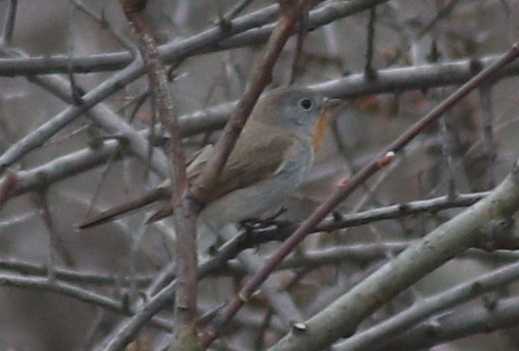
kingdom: Animalia
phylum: Chordata
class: Aves
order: Passeriformes
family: Muscicapidae
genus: Ficedula
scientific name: Ficedula parva
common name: Red-breasted flycatcher
